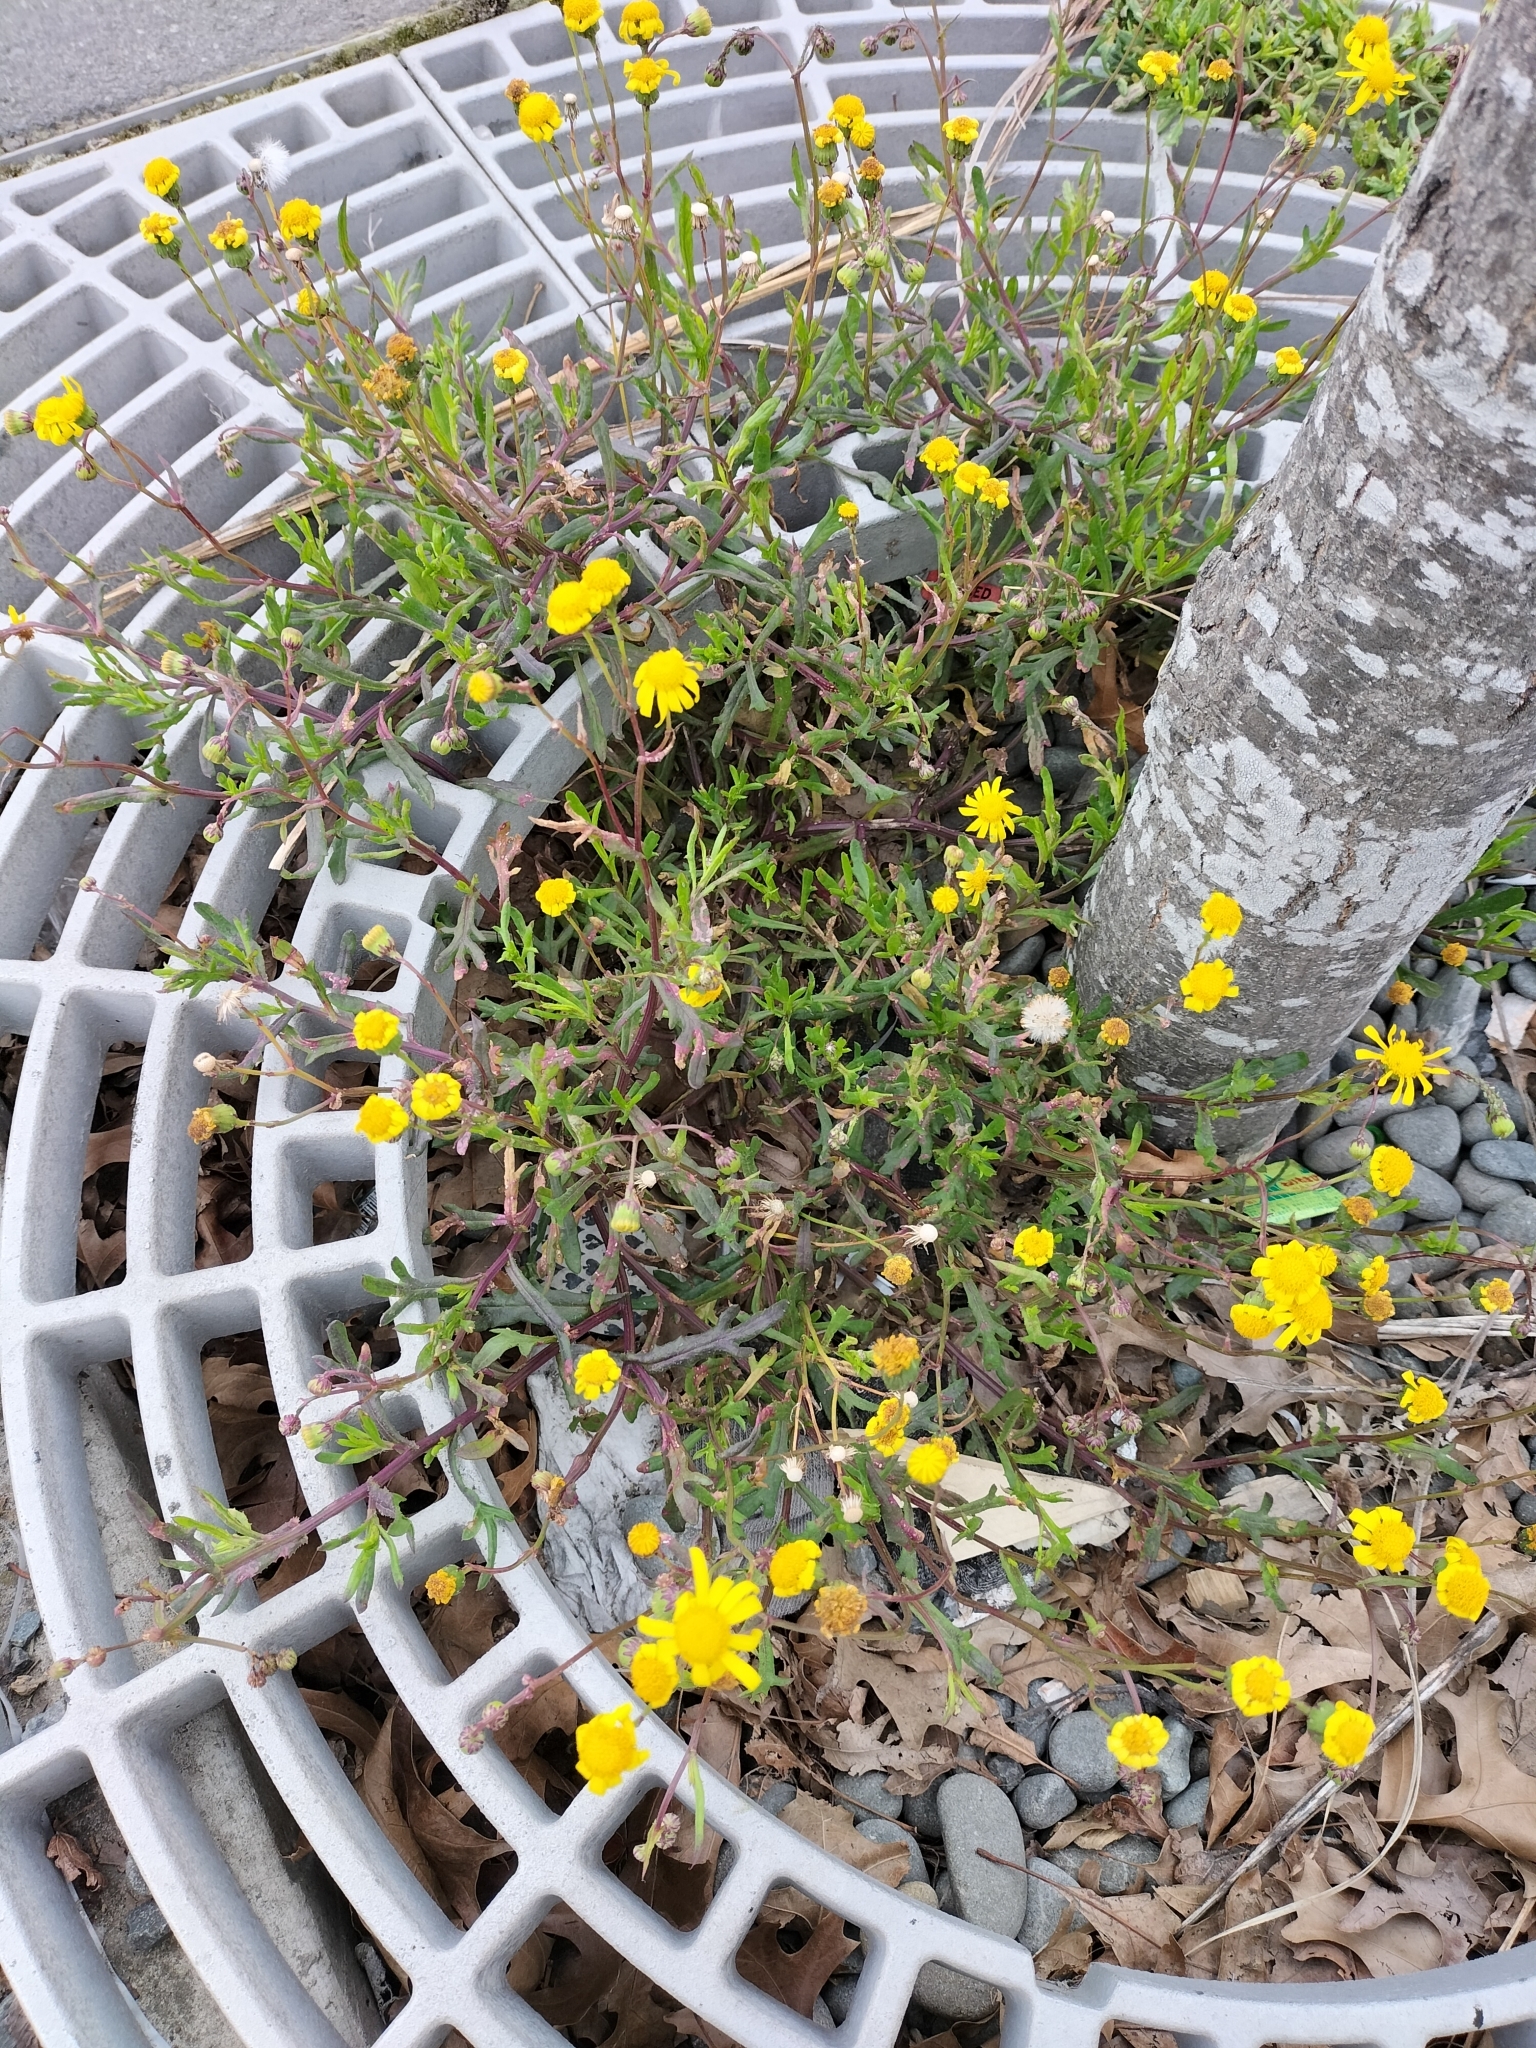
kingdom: Plantae
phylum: Tracheophyta
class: Magnoliopsida
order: Asterales
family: Asteraceae
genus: Senecio
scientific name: Senecio skirrhodon
